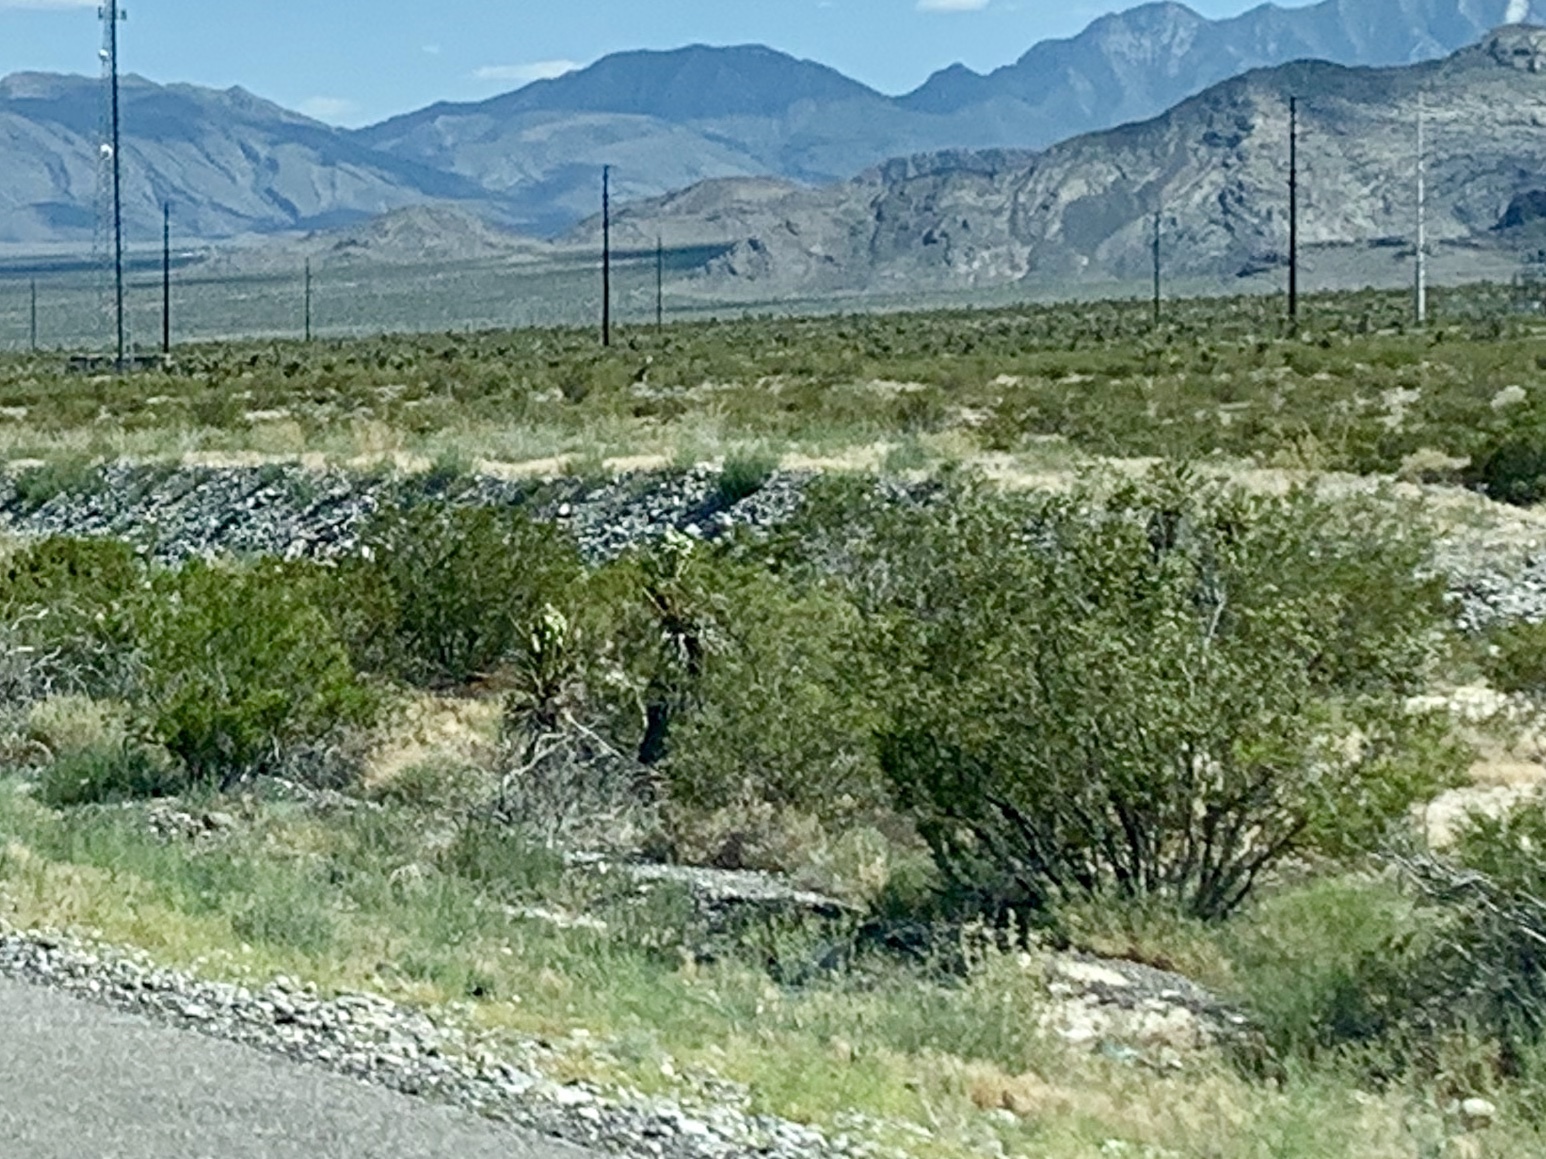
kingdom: Plantae
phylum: Tracheophyta
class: Magnoliopsida
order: Zygophyllales
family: Zygophyllaceae
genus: Larrea
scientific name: Larrea tridentata
